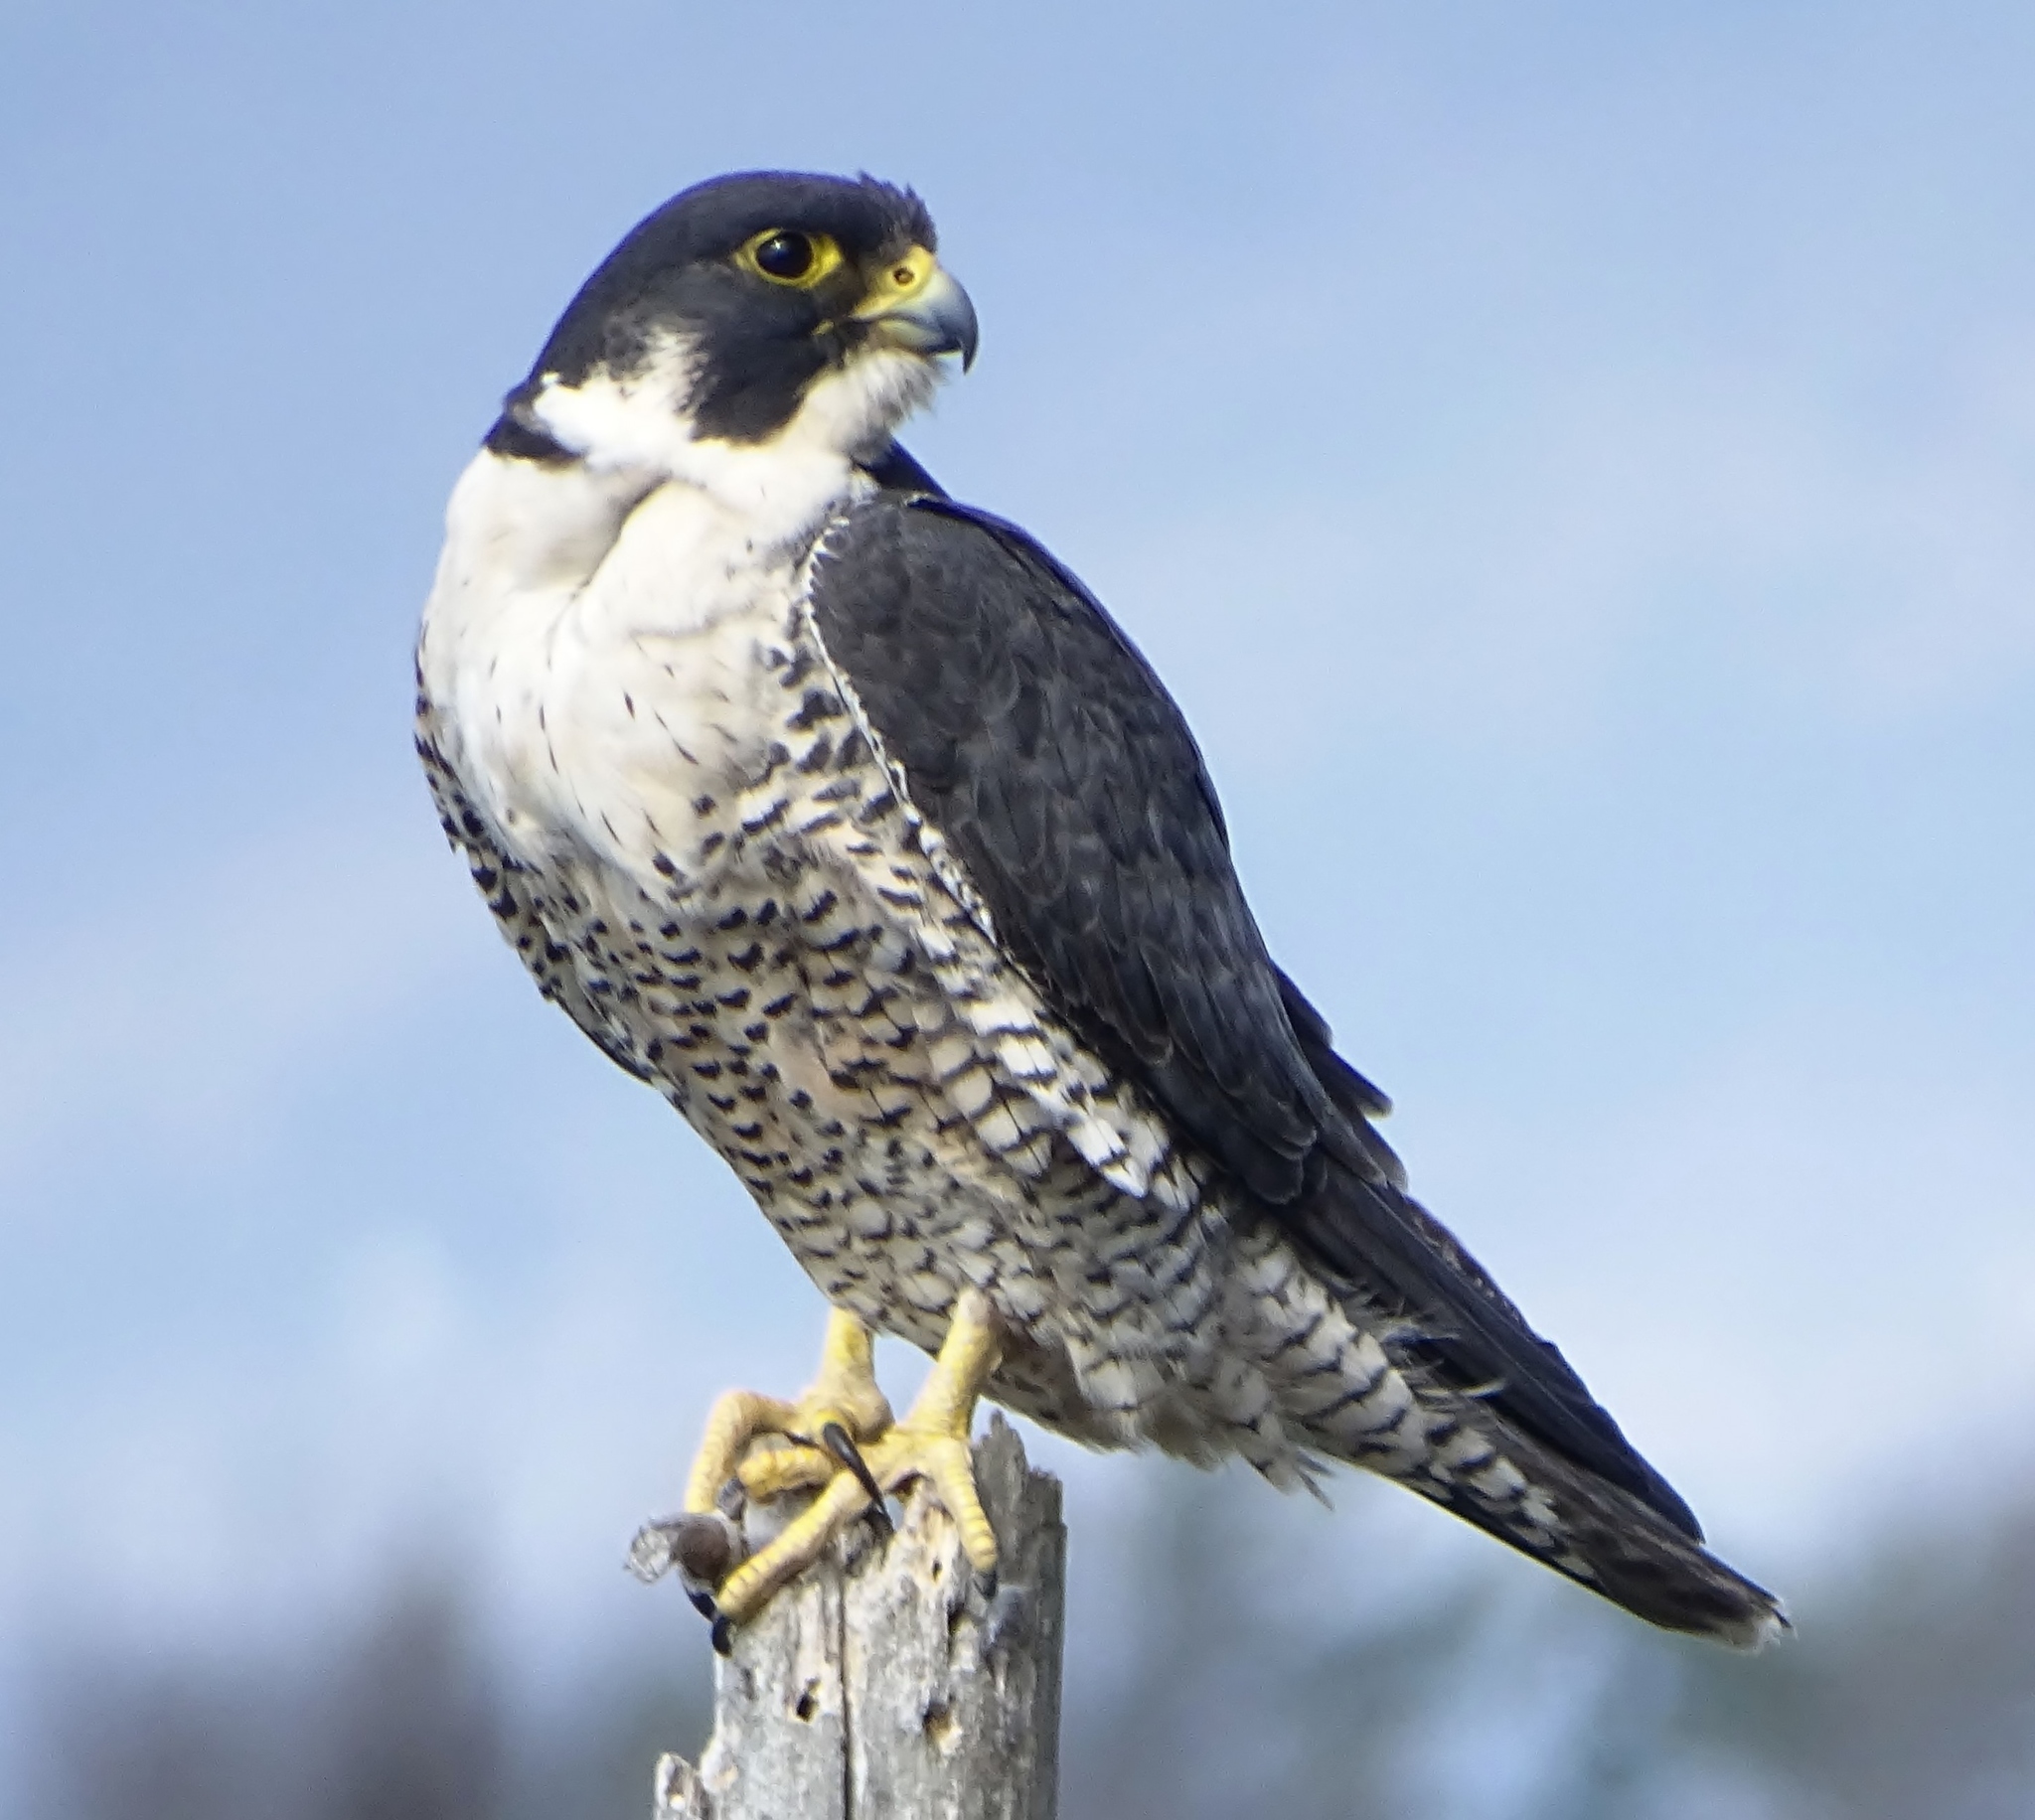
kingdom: Animalia
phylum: Chordata
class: Aves
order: Falconiformes
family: Falconidae
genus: Falco
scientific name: Falco peregrinus
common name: Peregrine falcon
